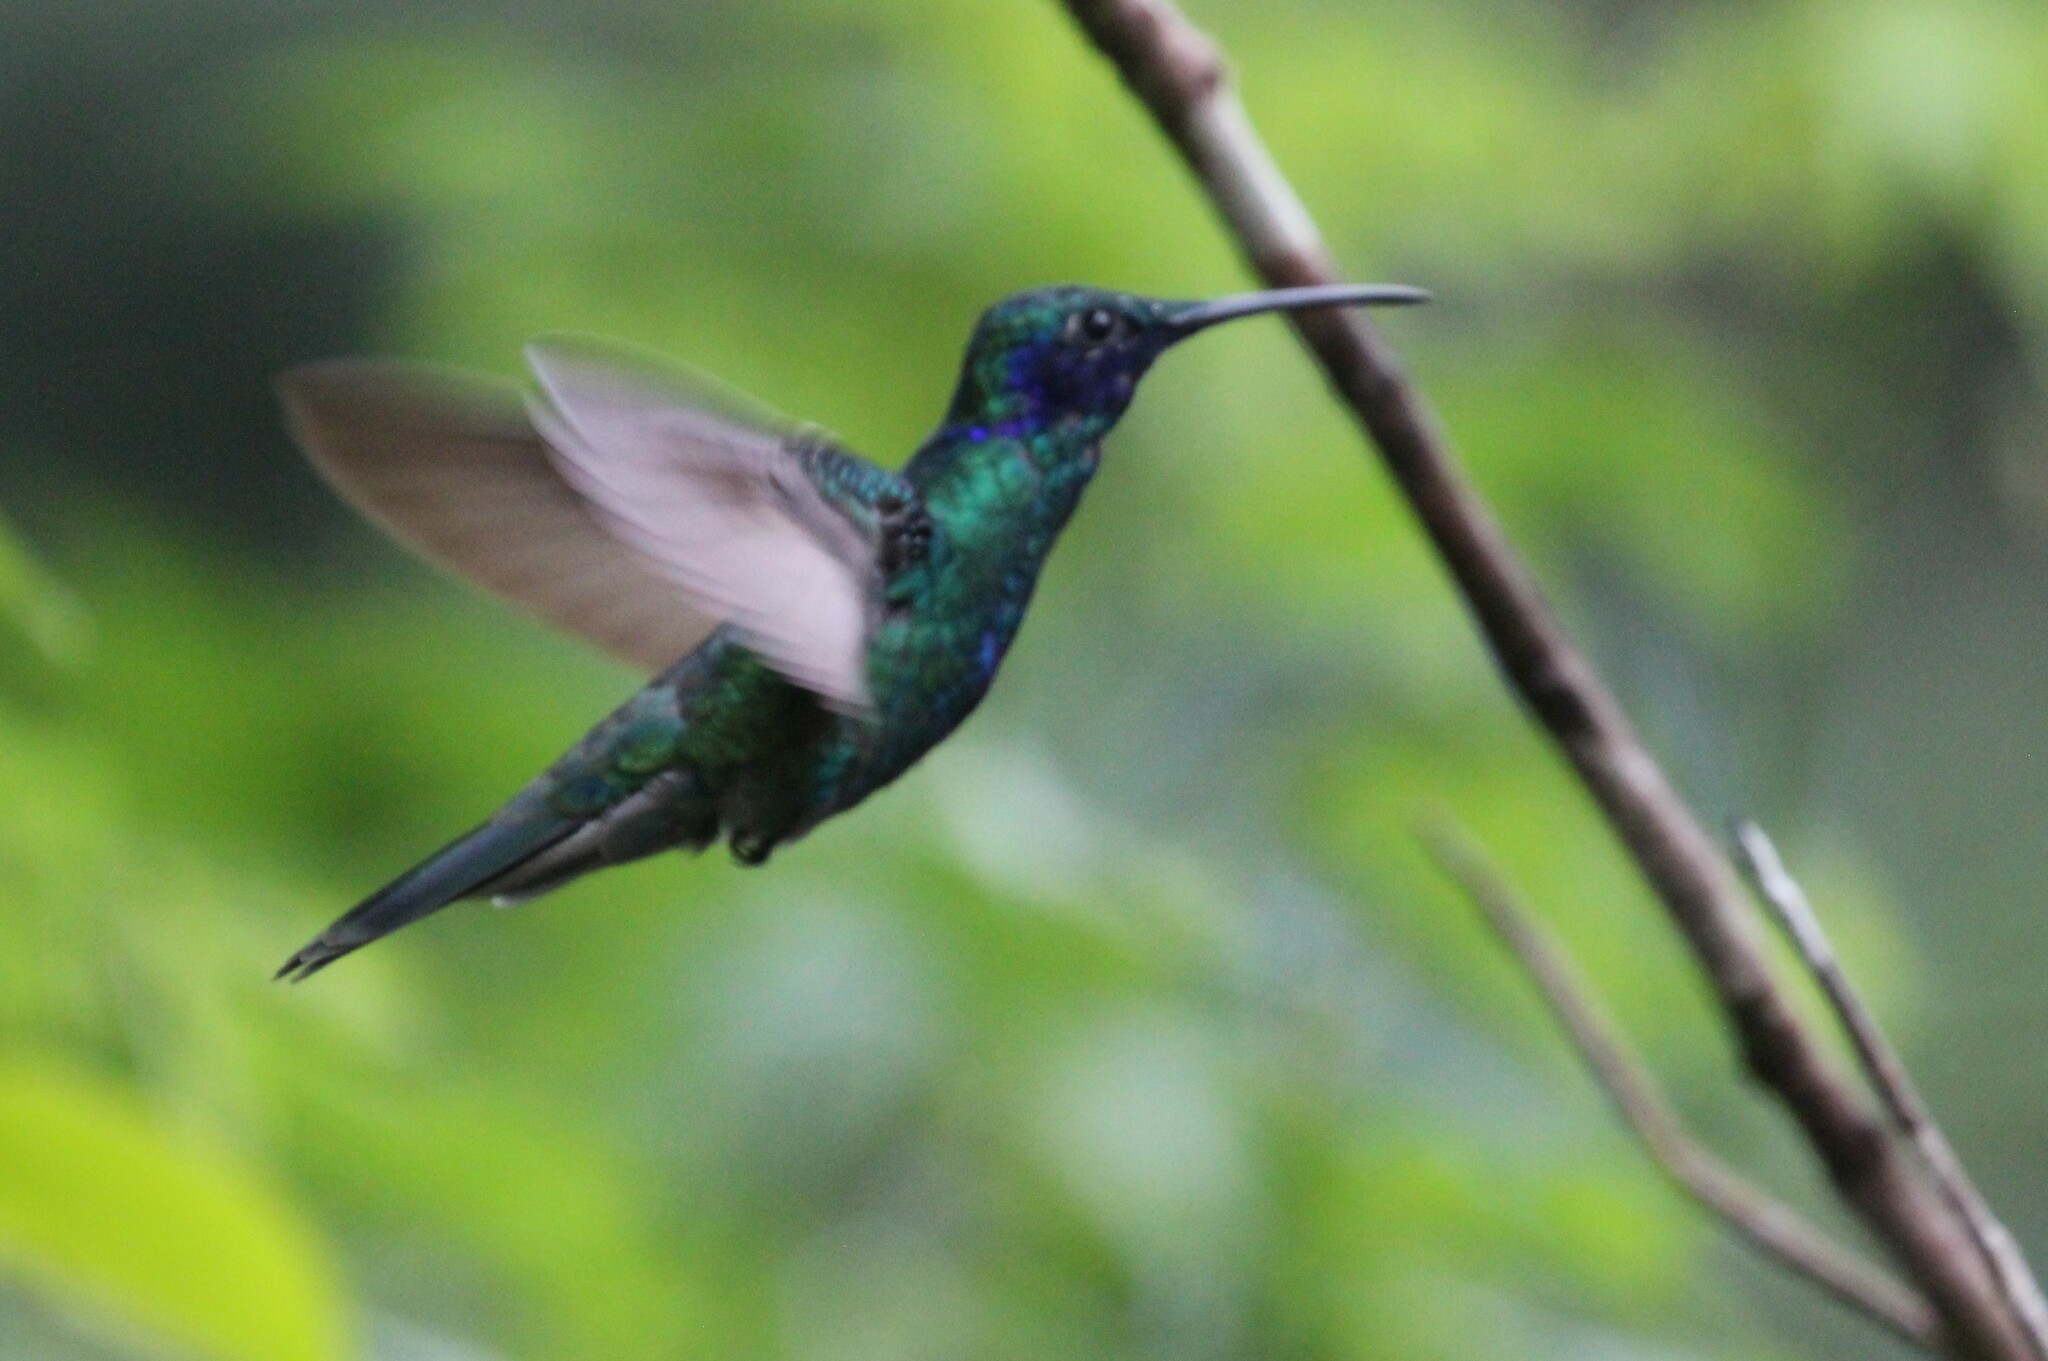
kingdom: Animalia
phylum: Chordata
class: Aves
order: Apodiformes
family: Trochilidae
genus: Colibri
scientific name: Colibri coruscans
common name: Sparkling violetear
